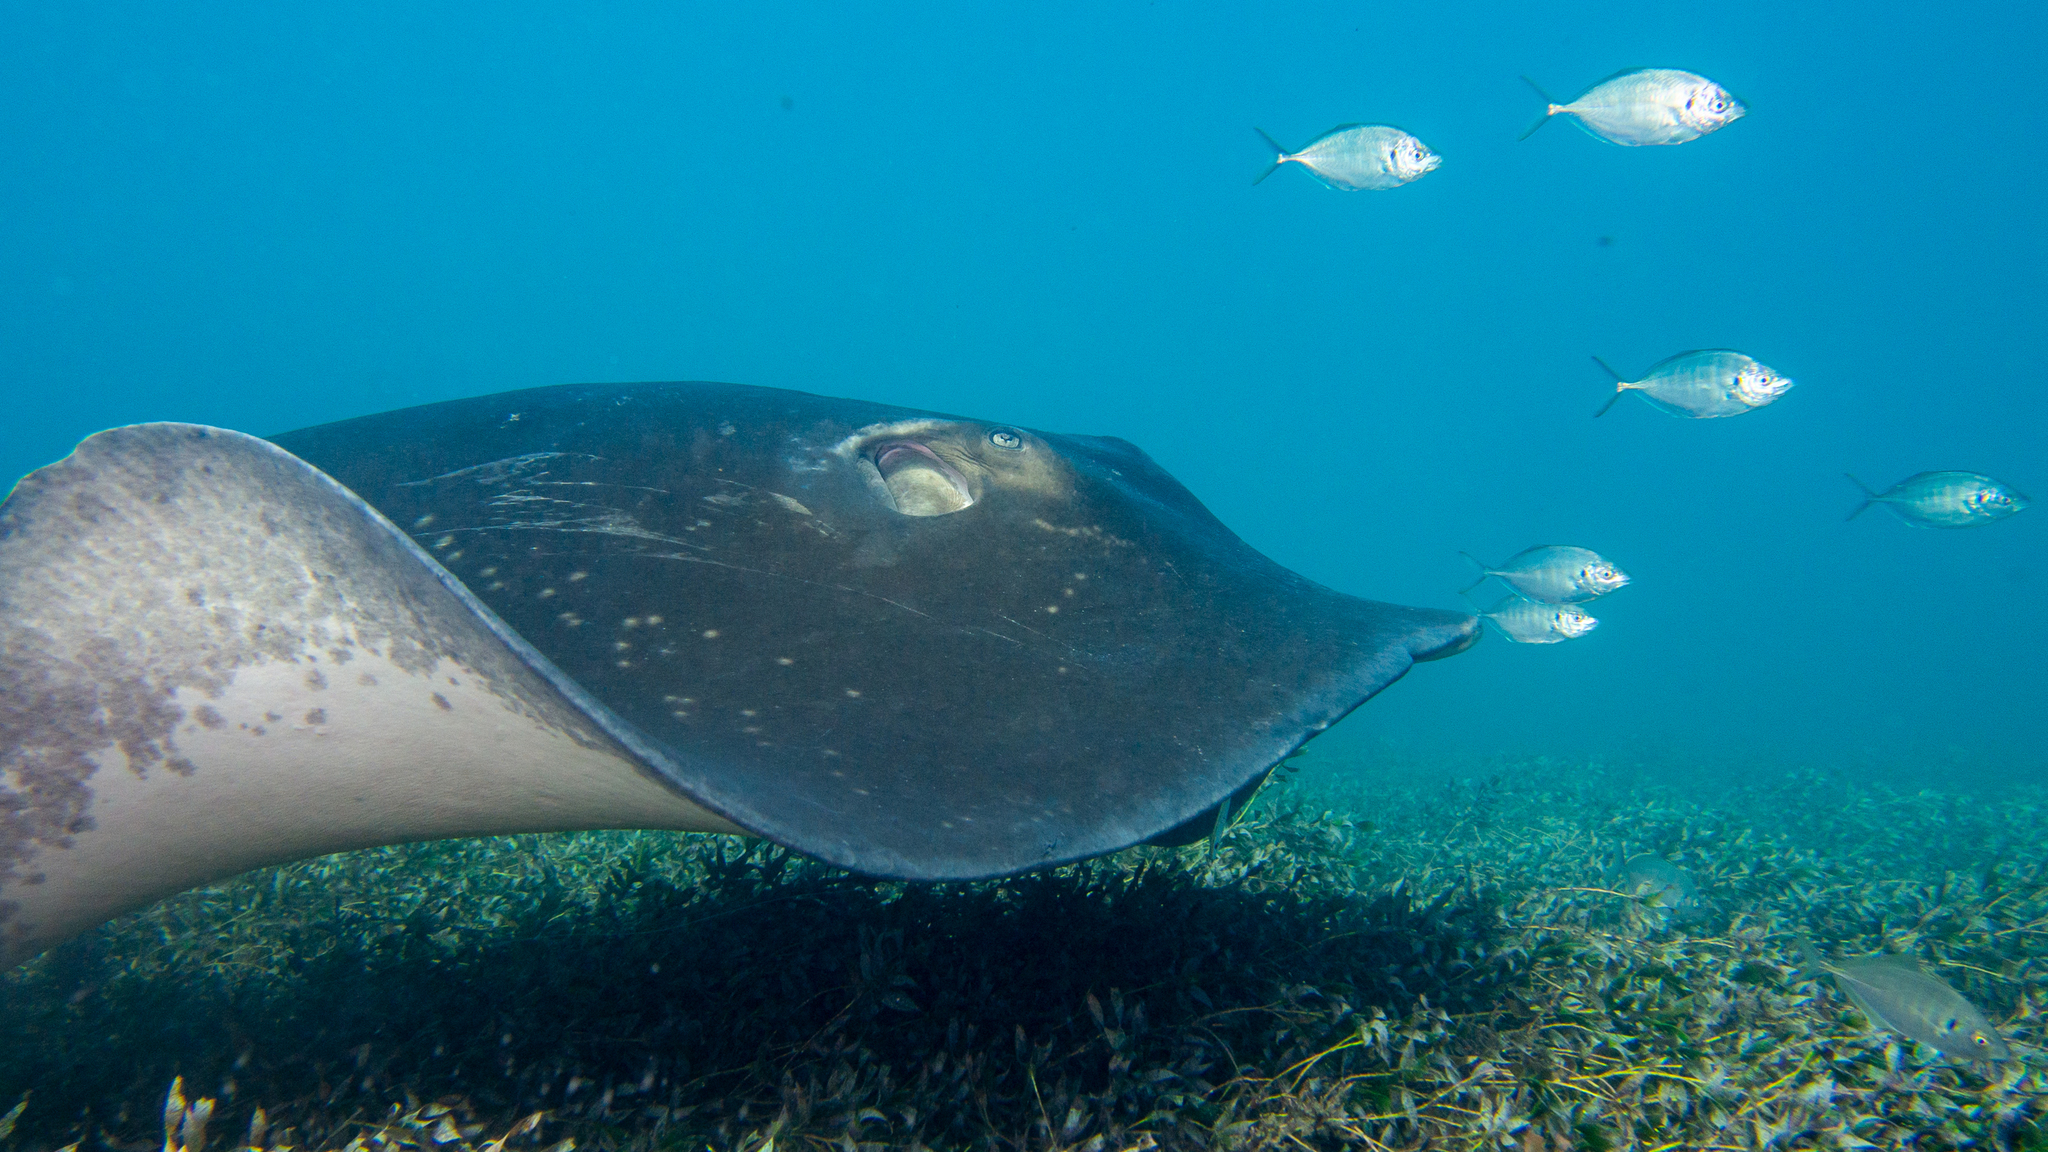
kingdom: Animalia
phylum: Chordata
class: Elasmobranchii
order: Myliobatiformes
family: Dasyatidae
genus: Bathytoshia
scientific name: Bathytoshia brevicaudata
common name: Short-tail stingray
